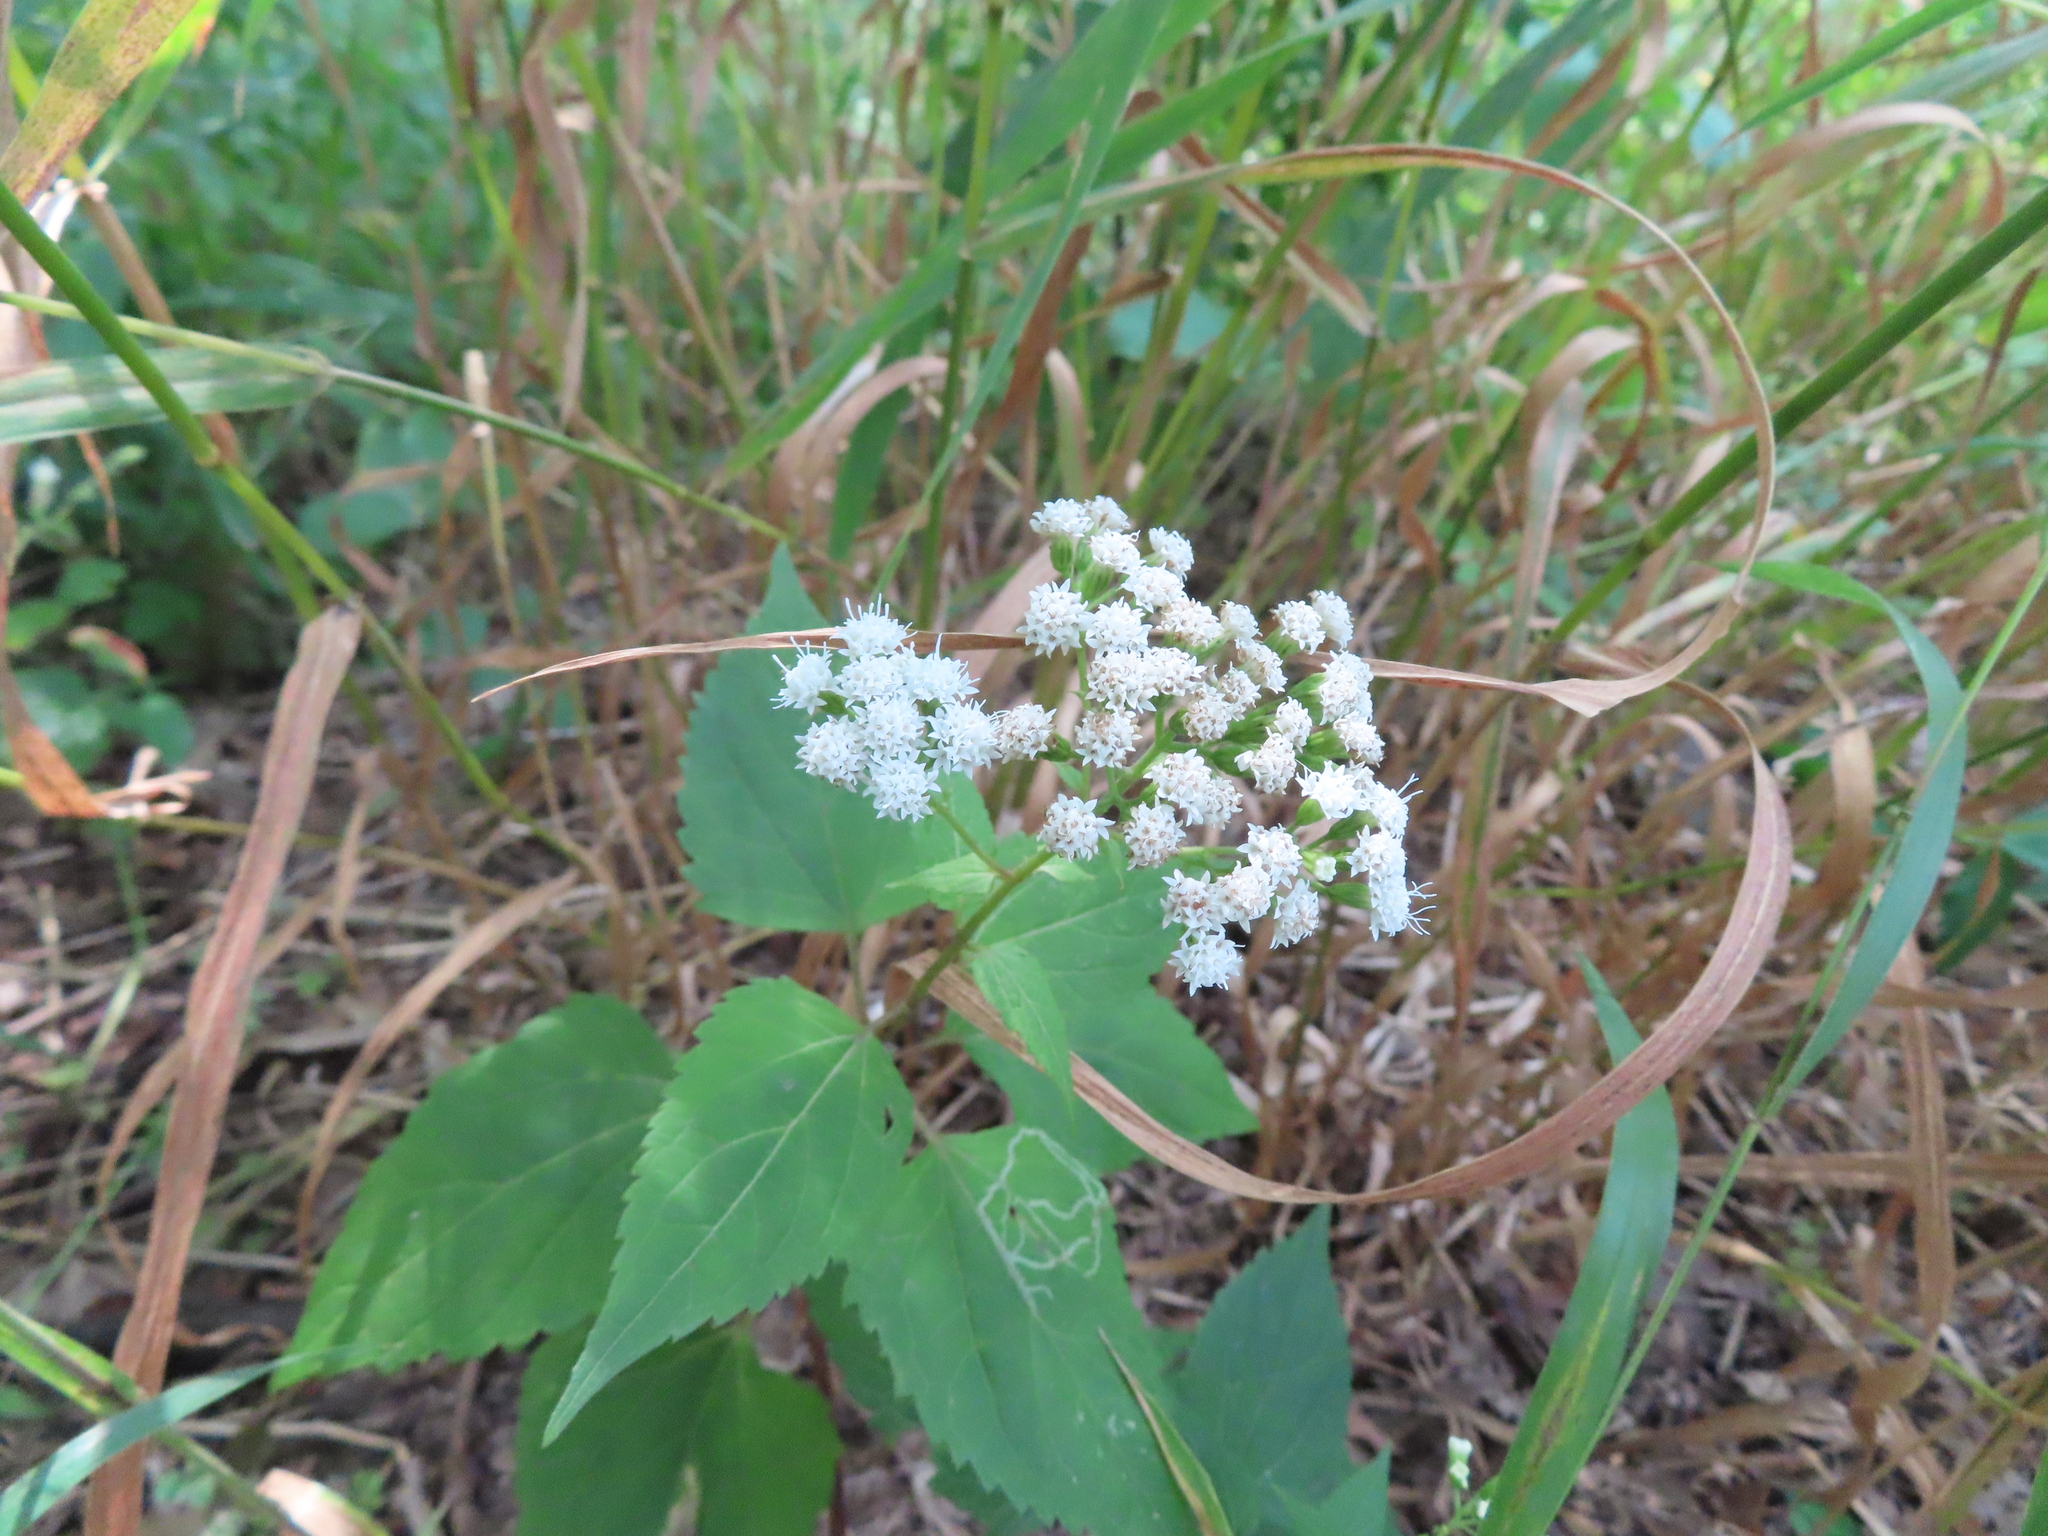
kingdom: Plantae
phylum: Tracheophyta
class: Magnoliopsida
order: Asterales
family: Asteraceae
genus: Ageratina
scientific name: Ageratina altissima
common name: White snakeroot
